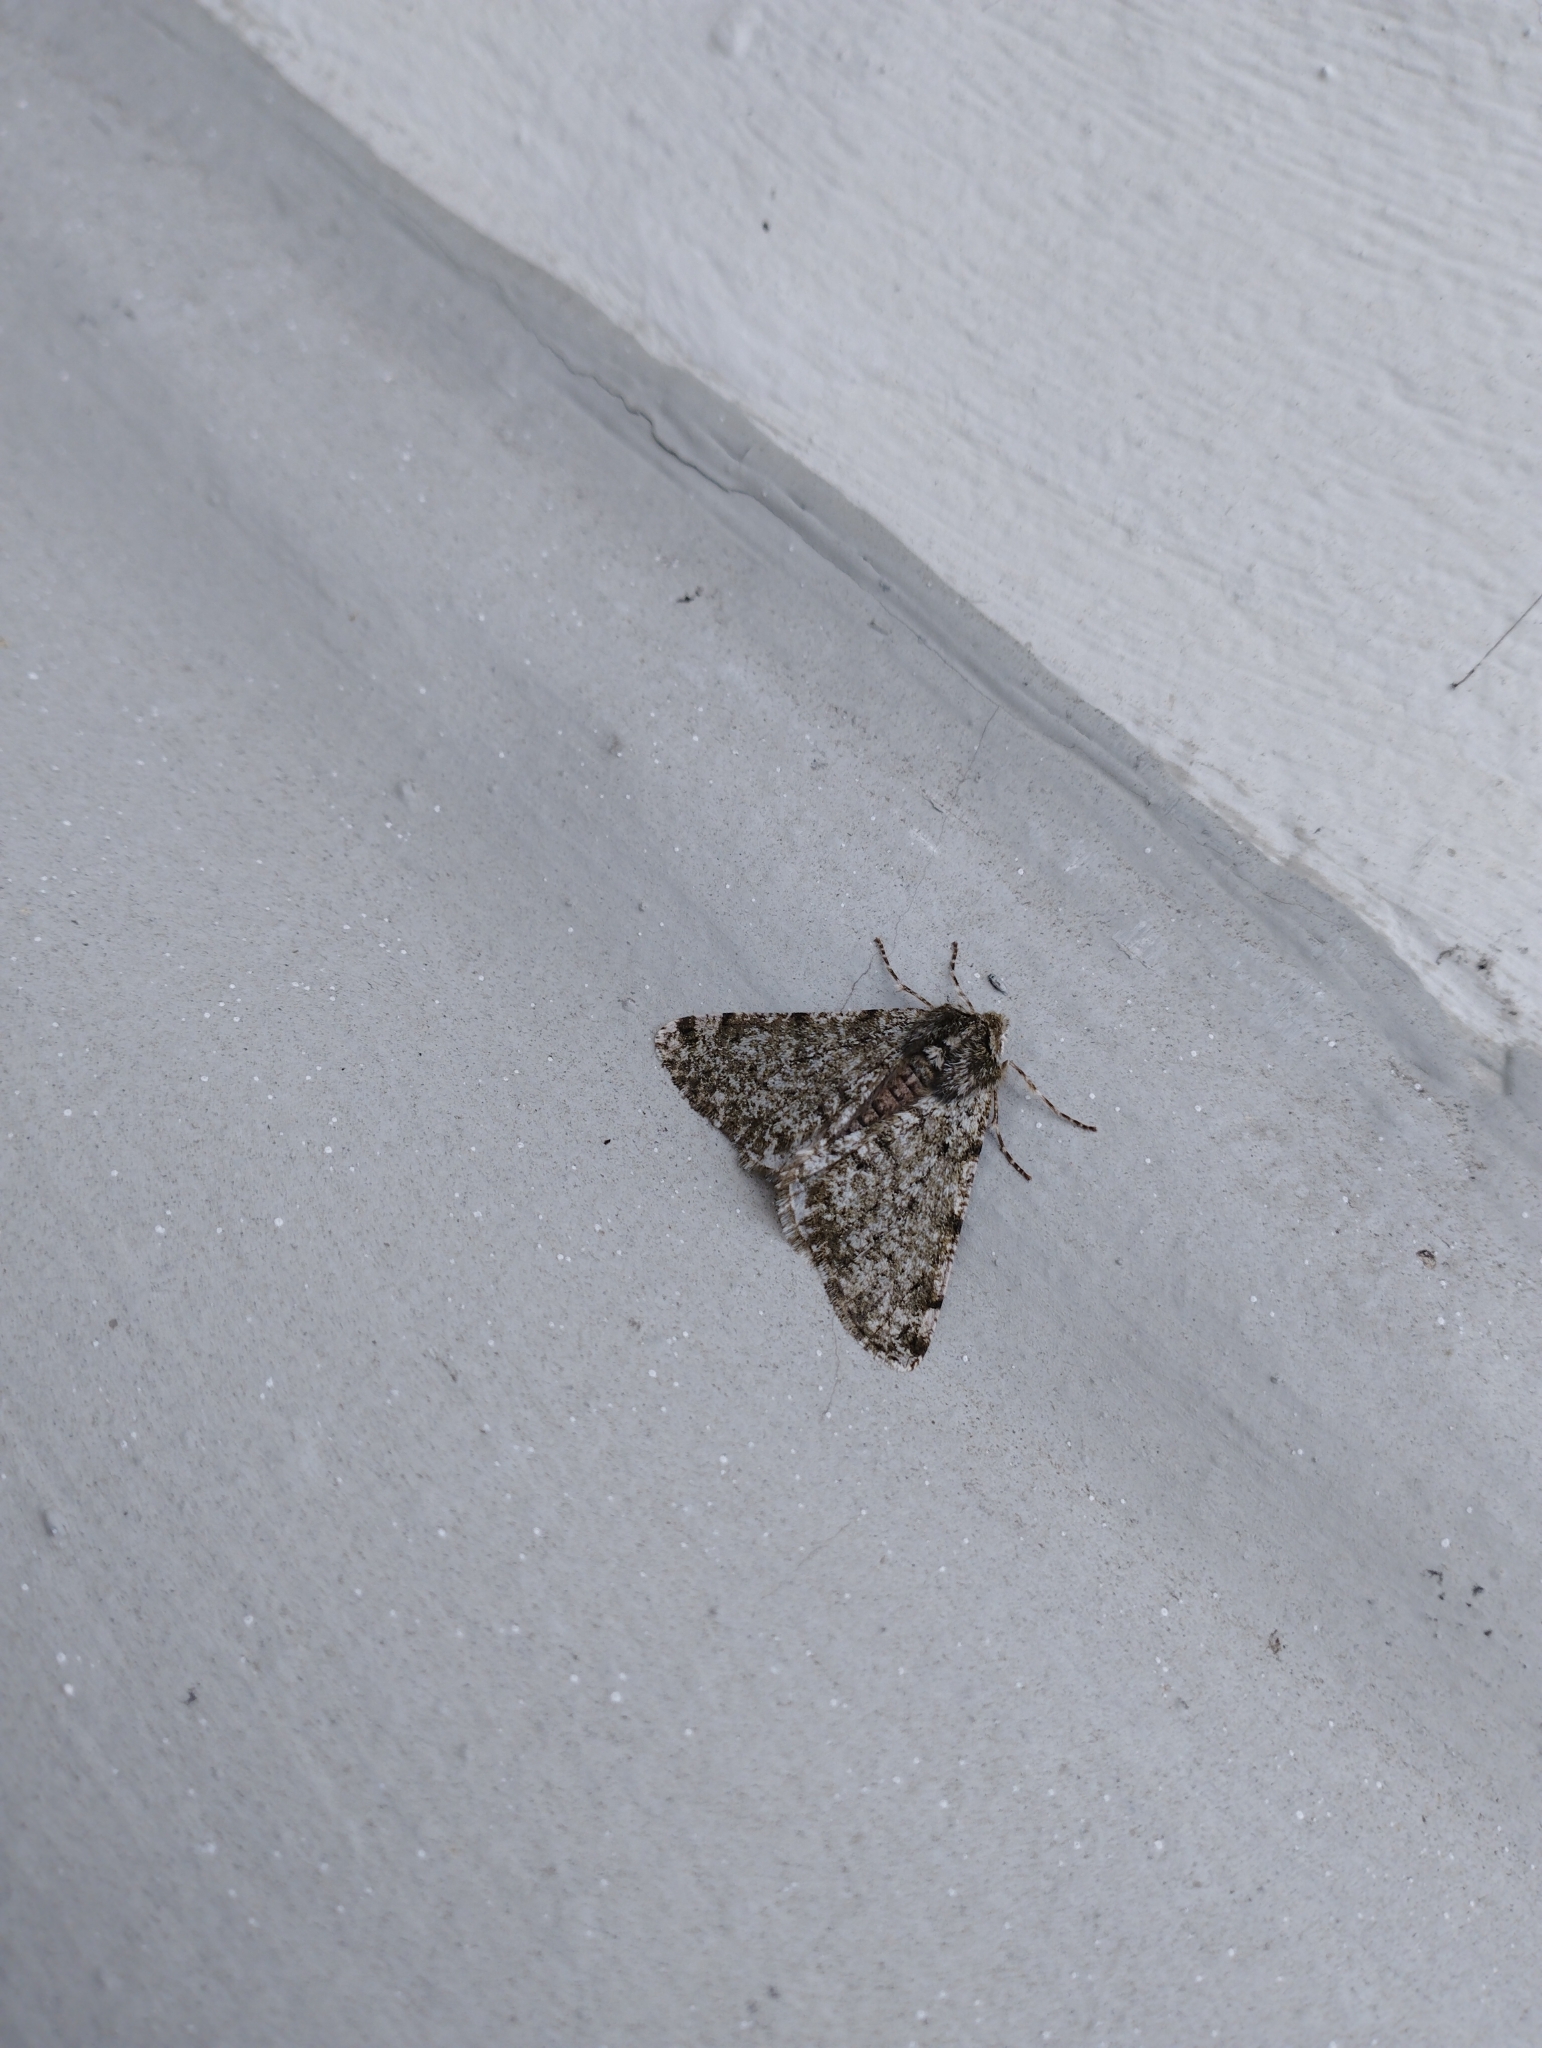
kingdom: Animalia
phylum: Arthropoda
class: Insecta
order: Lepidoptera
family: Geometridae
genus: Phigalia
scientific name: Phigalia pilosaria
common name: Pale brindled beauty
